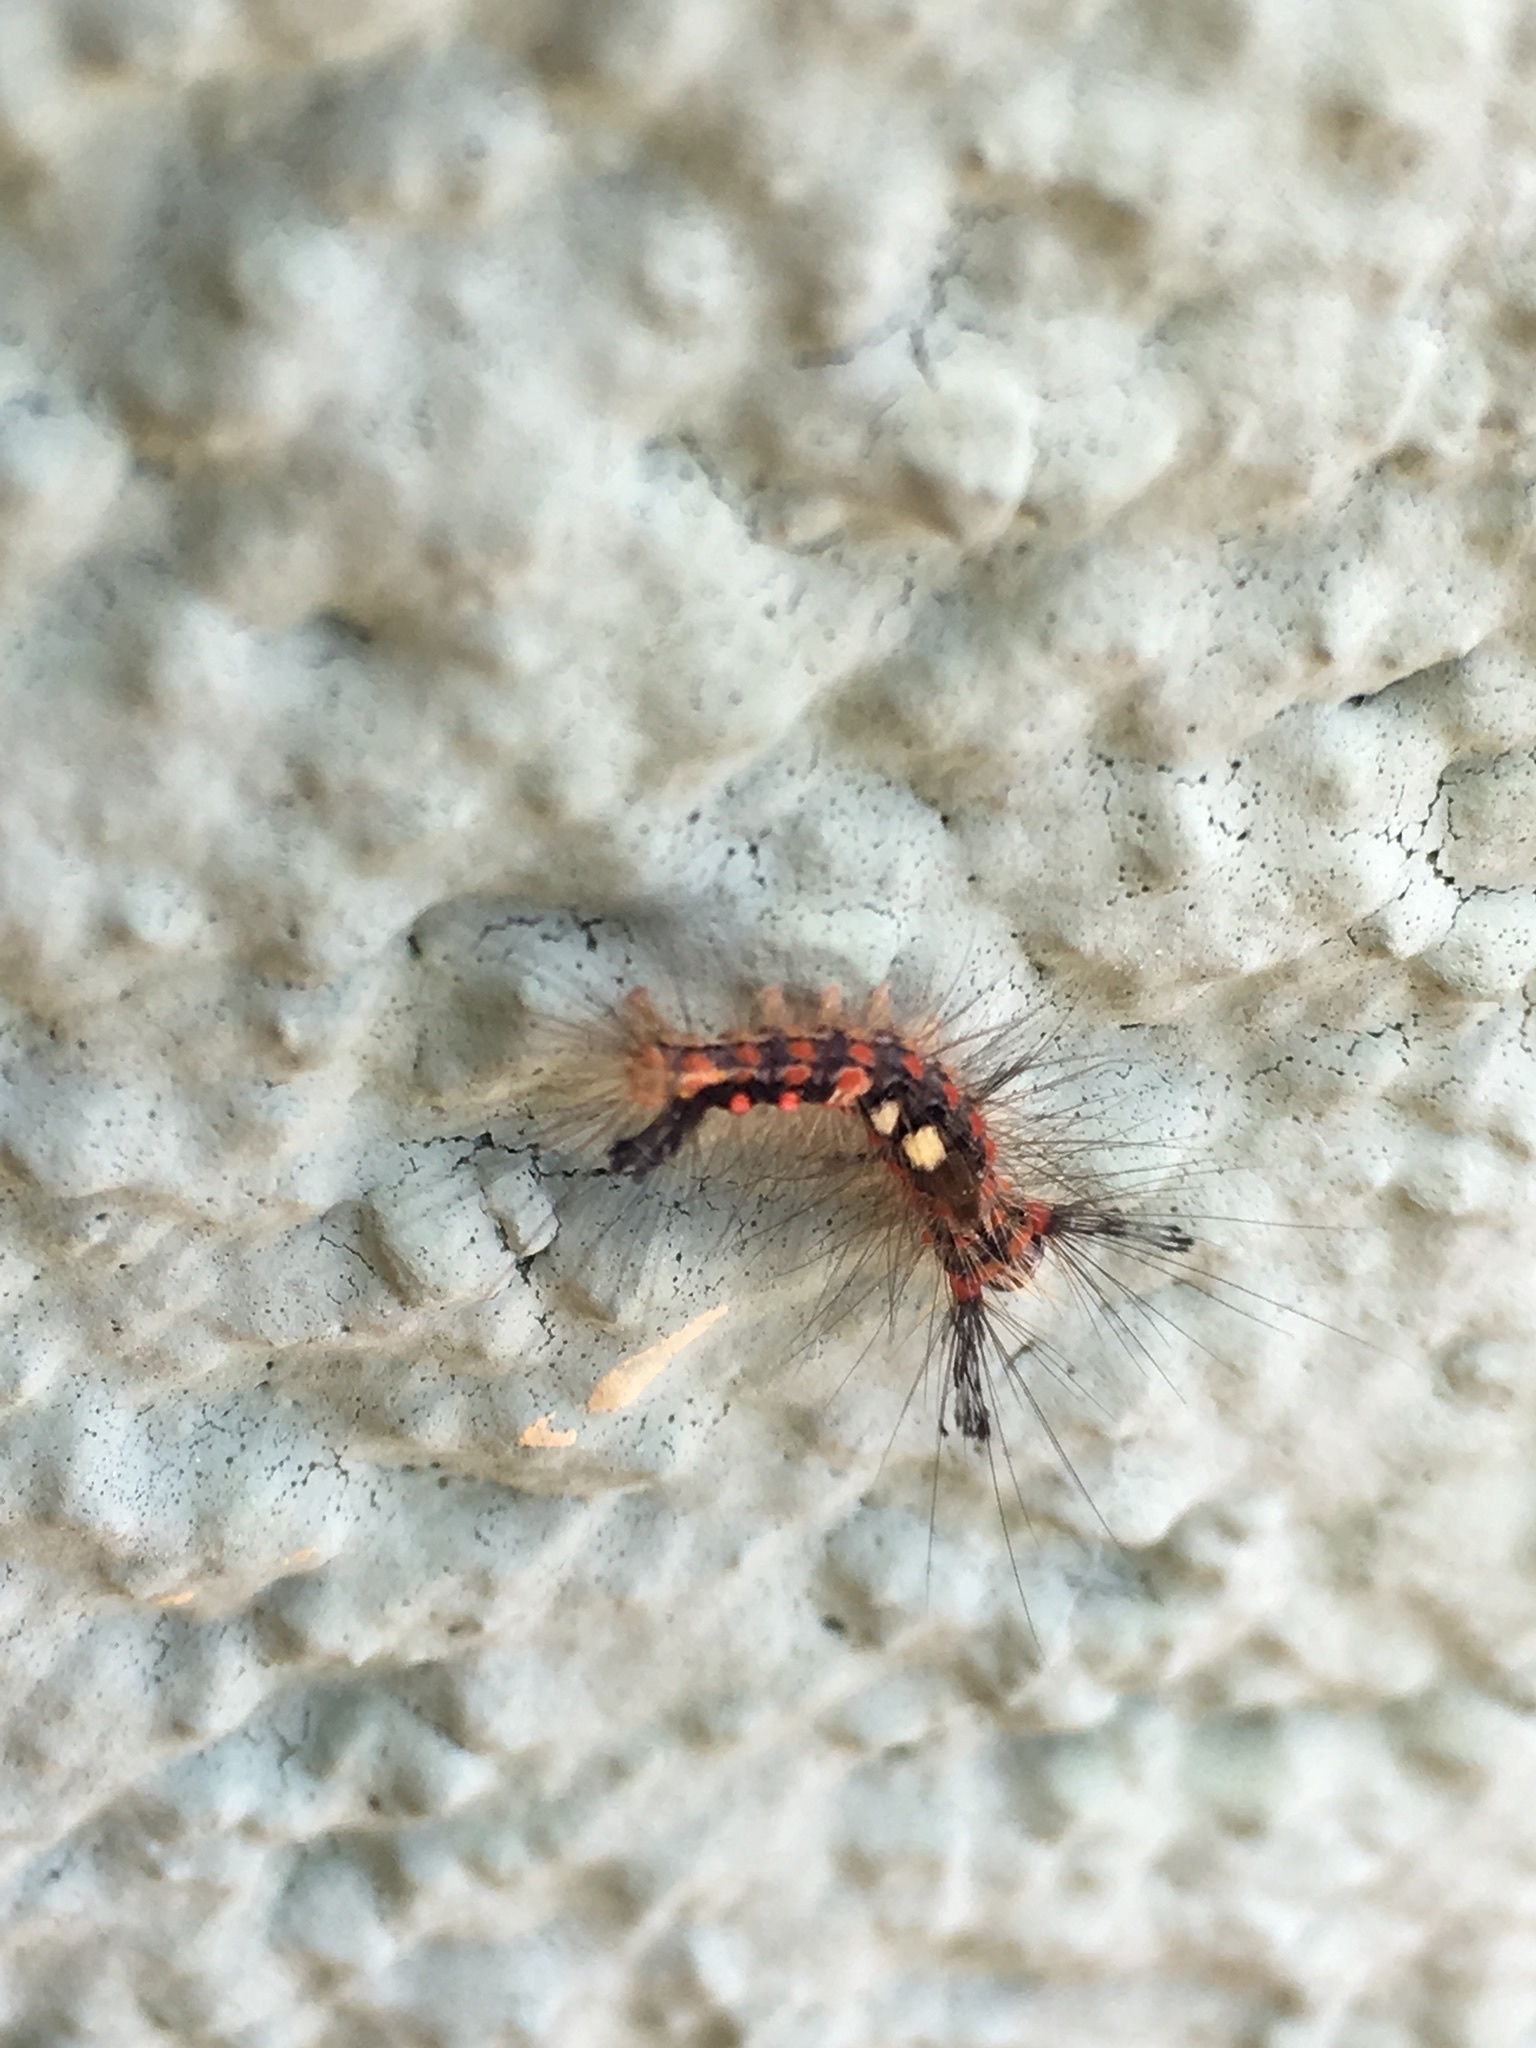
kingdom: Animalia
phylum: Arthropoda
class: Insecta
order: Lepidoptera
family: Erebidae
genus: Orgyia
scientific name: Orgyia antiqua
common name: Vapourer
